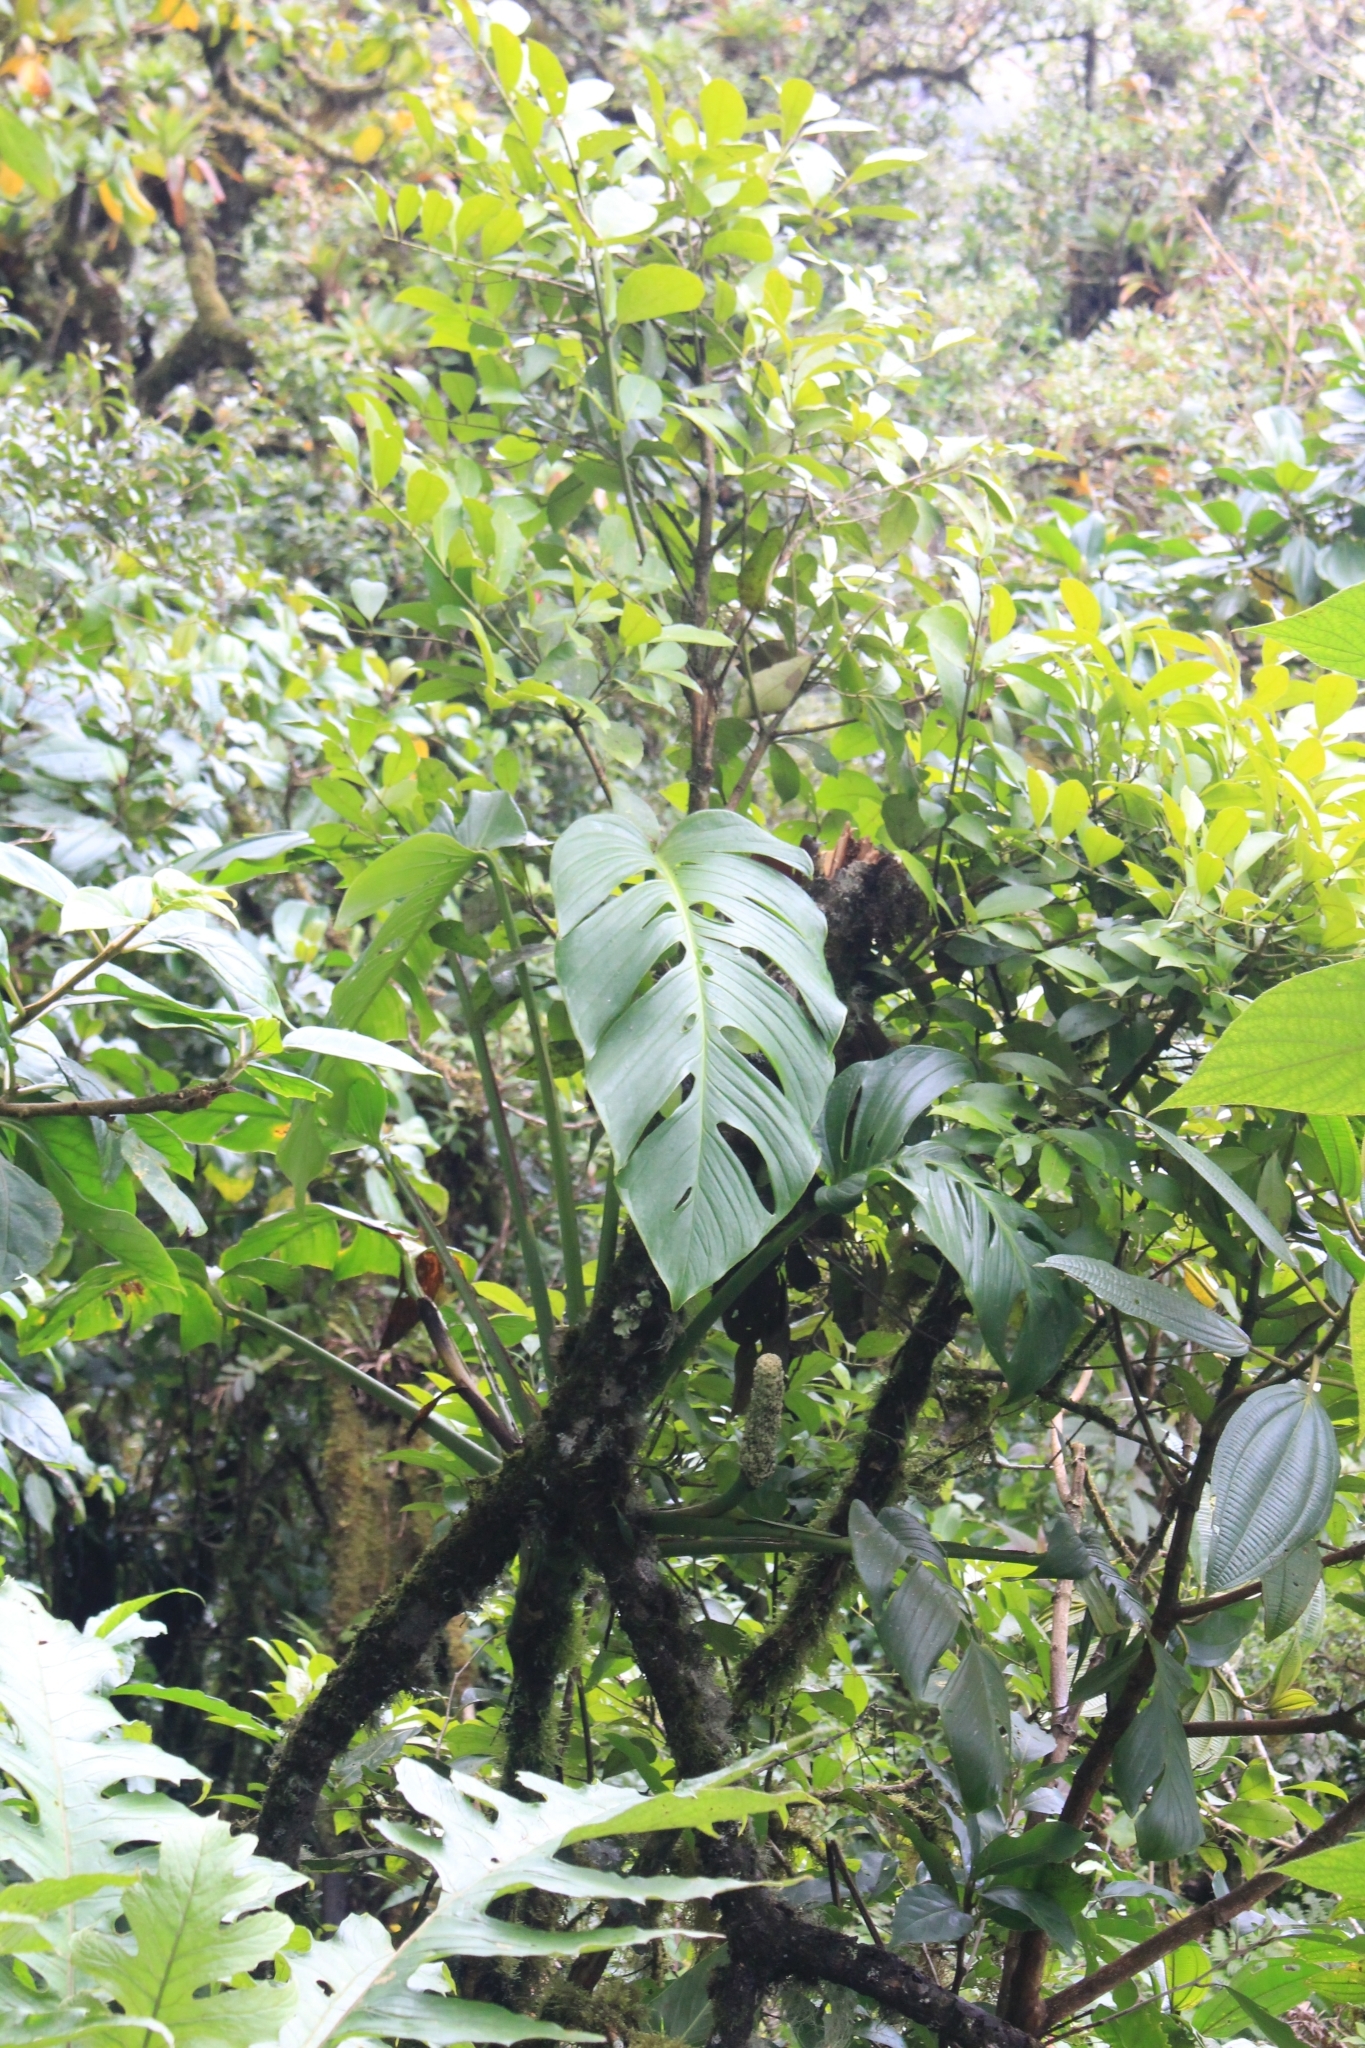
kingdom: Plantae
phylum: Tracheophyta
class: Liliopsida
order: Alismatales
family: Araceae
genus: Monstera
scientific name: Monstera oreophila
